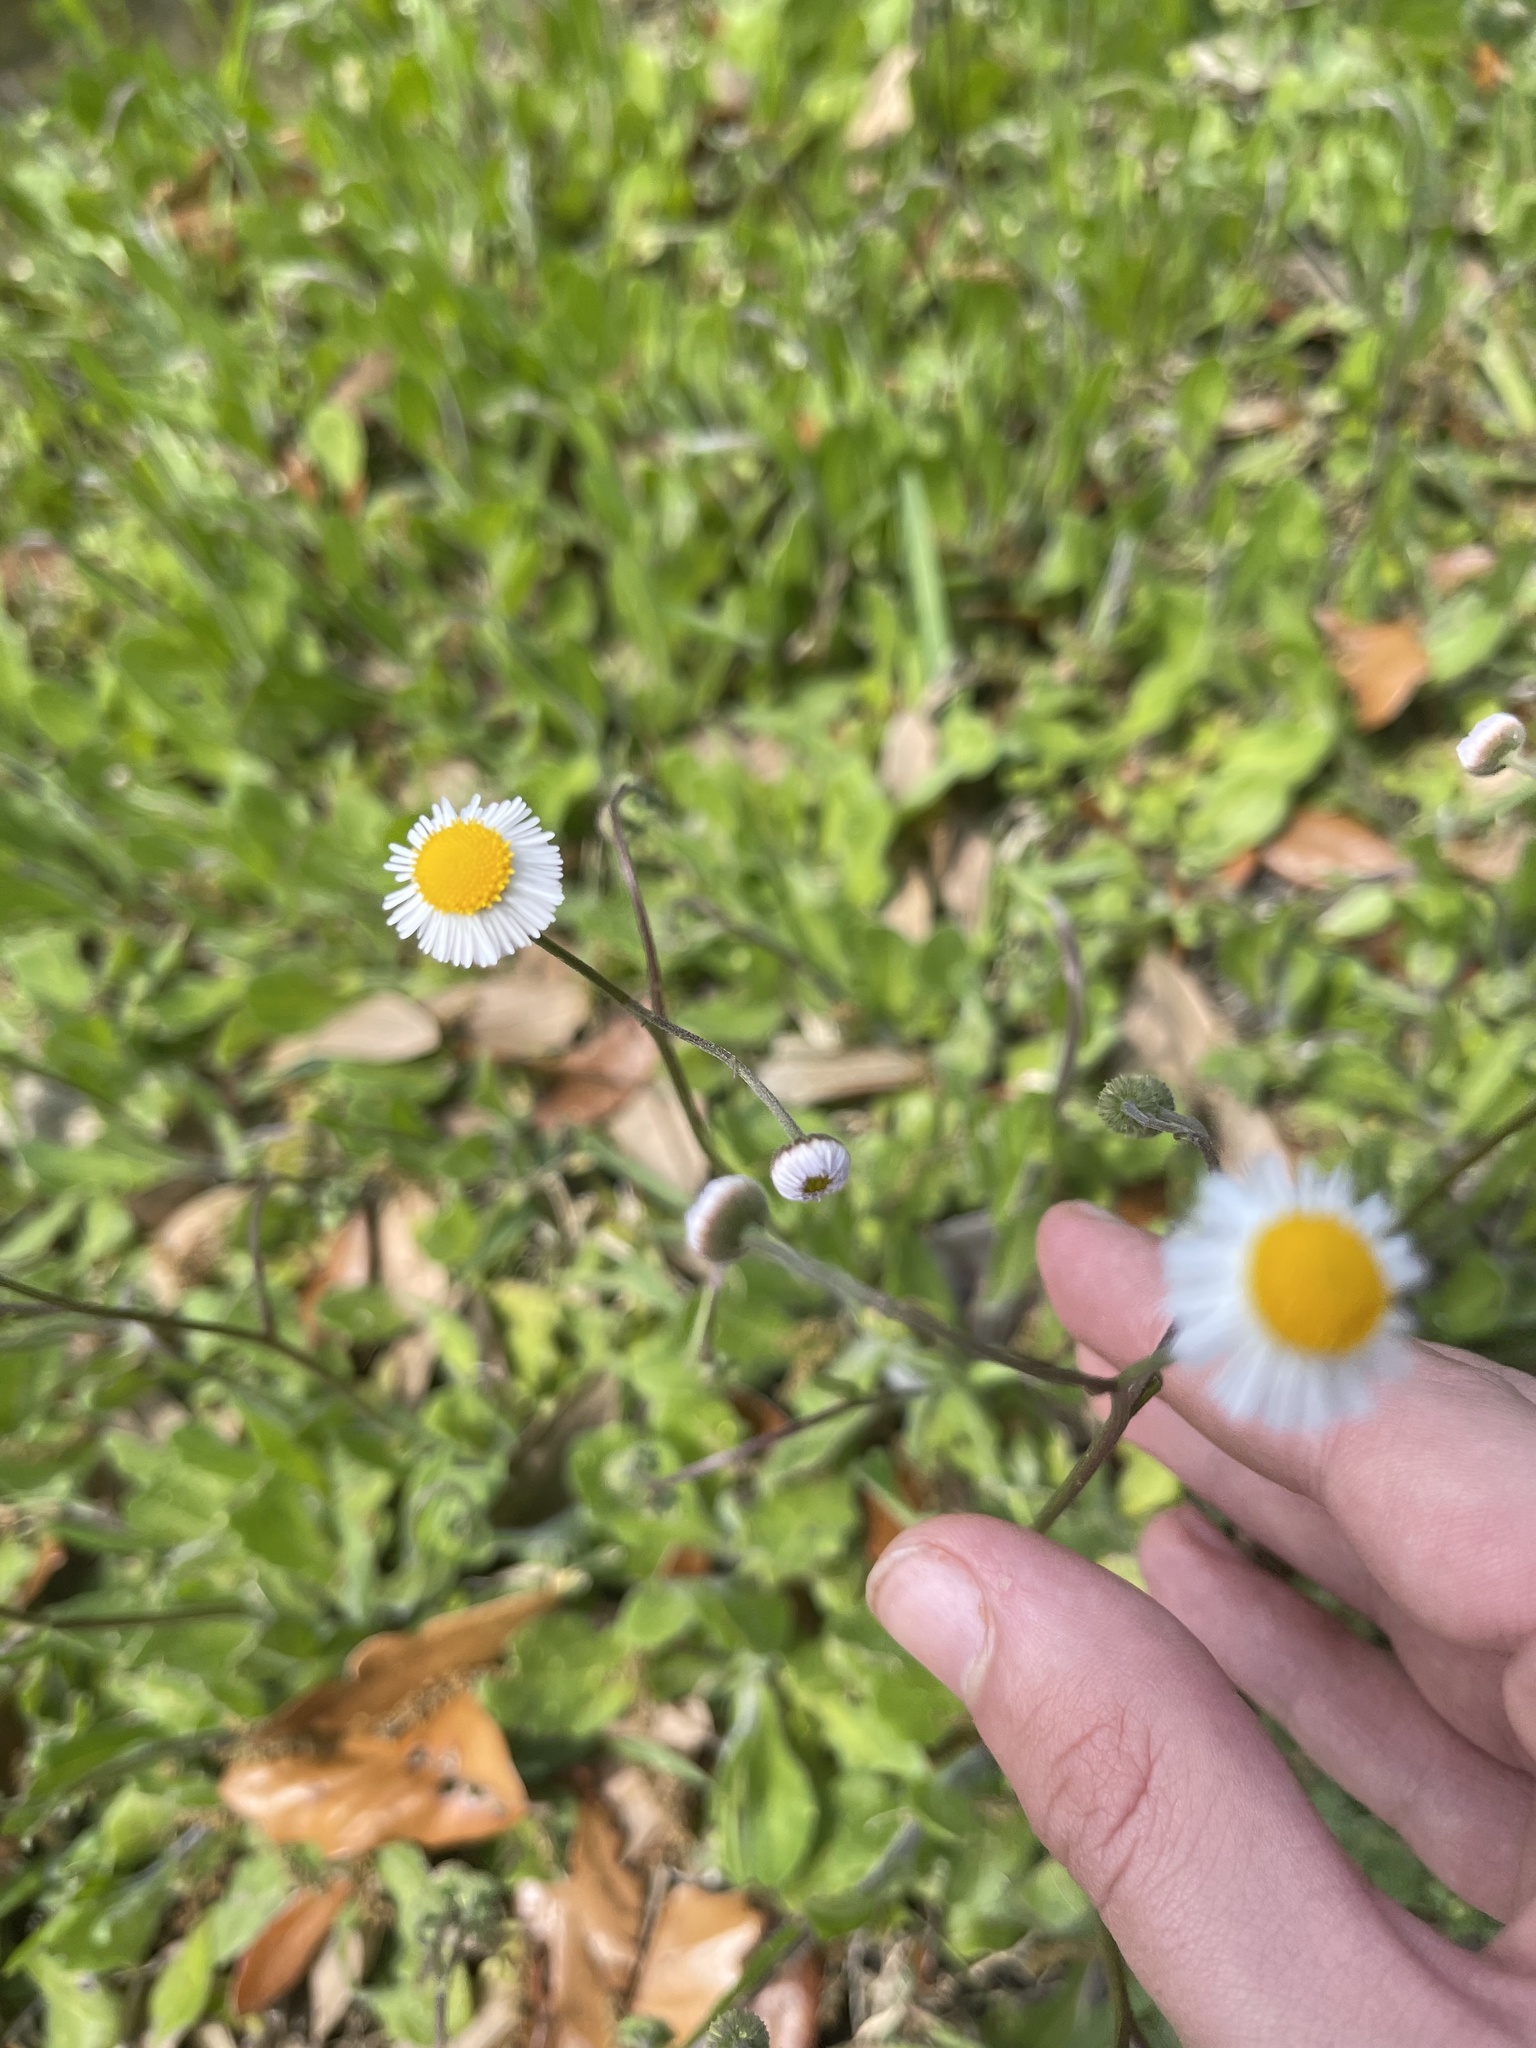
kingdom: Plantae
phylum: Tracheophyta
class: Magnoliopsida
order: Asterales
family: Asteraceae
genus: Erigeron
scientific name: Erigeron quercifolius
